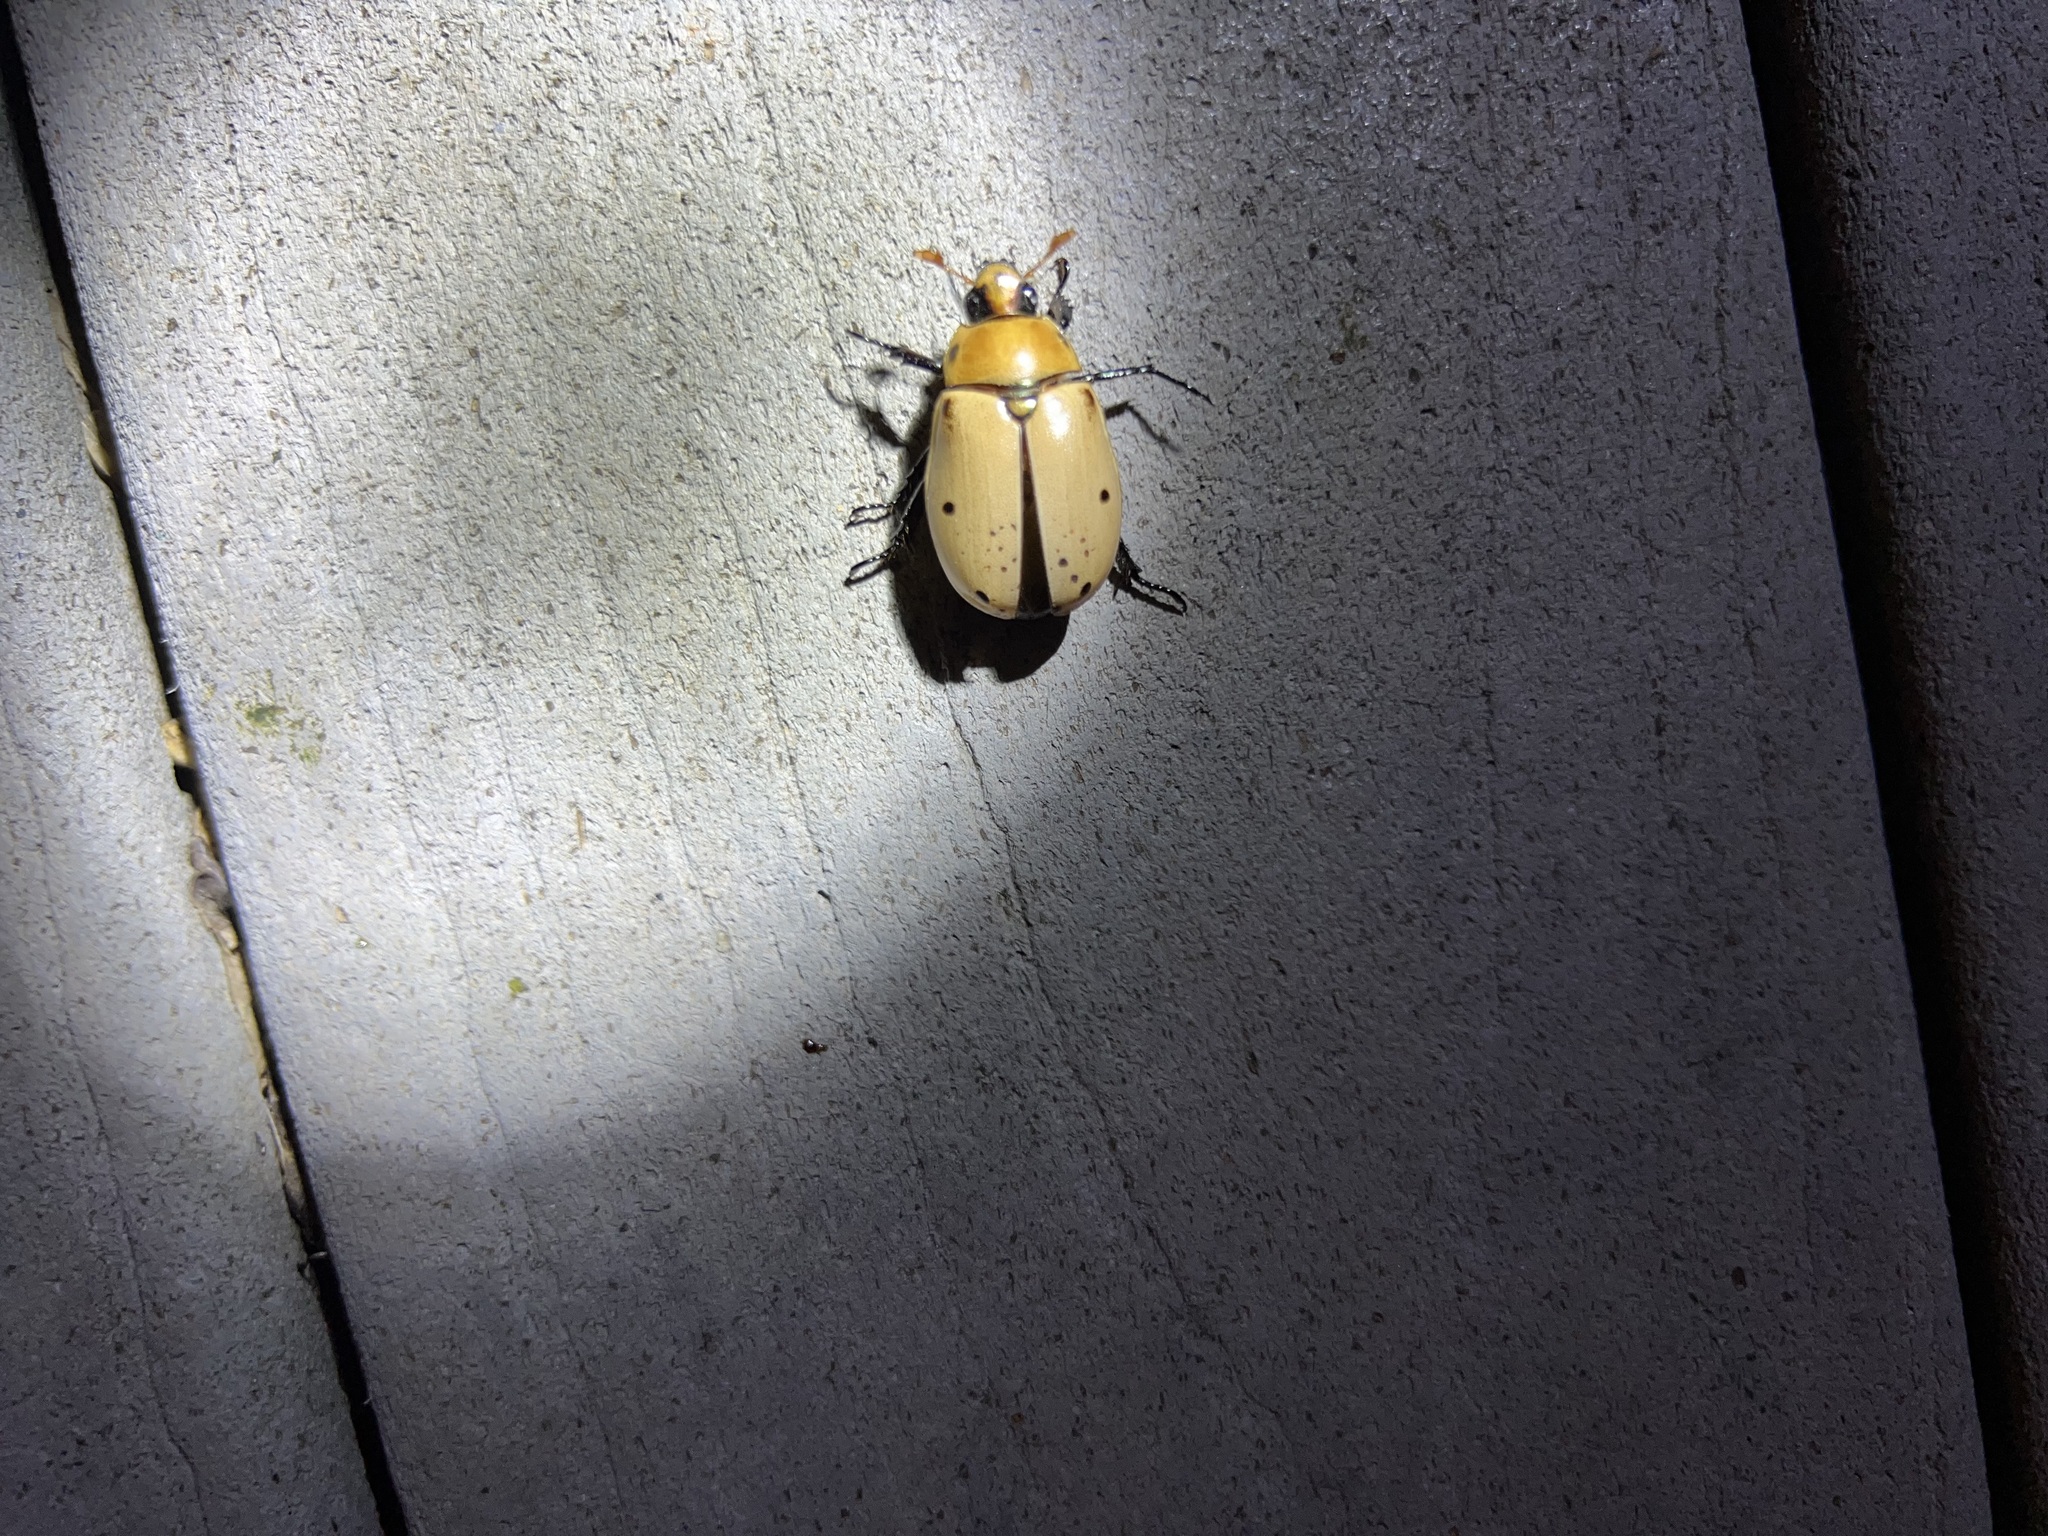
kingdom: Animalia
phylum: Arthropoda
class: Insecta
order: Coleoptera
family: Scarabaeidae
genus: Pelidnota
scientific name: Pelidnota punctata
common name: Grapevine beetle
